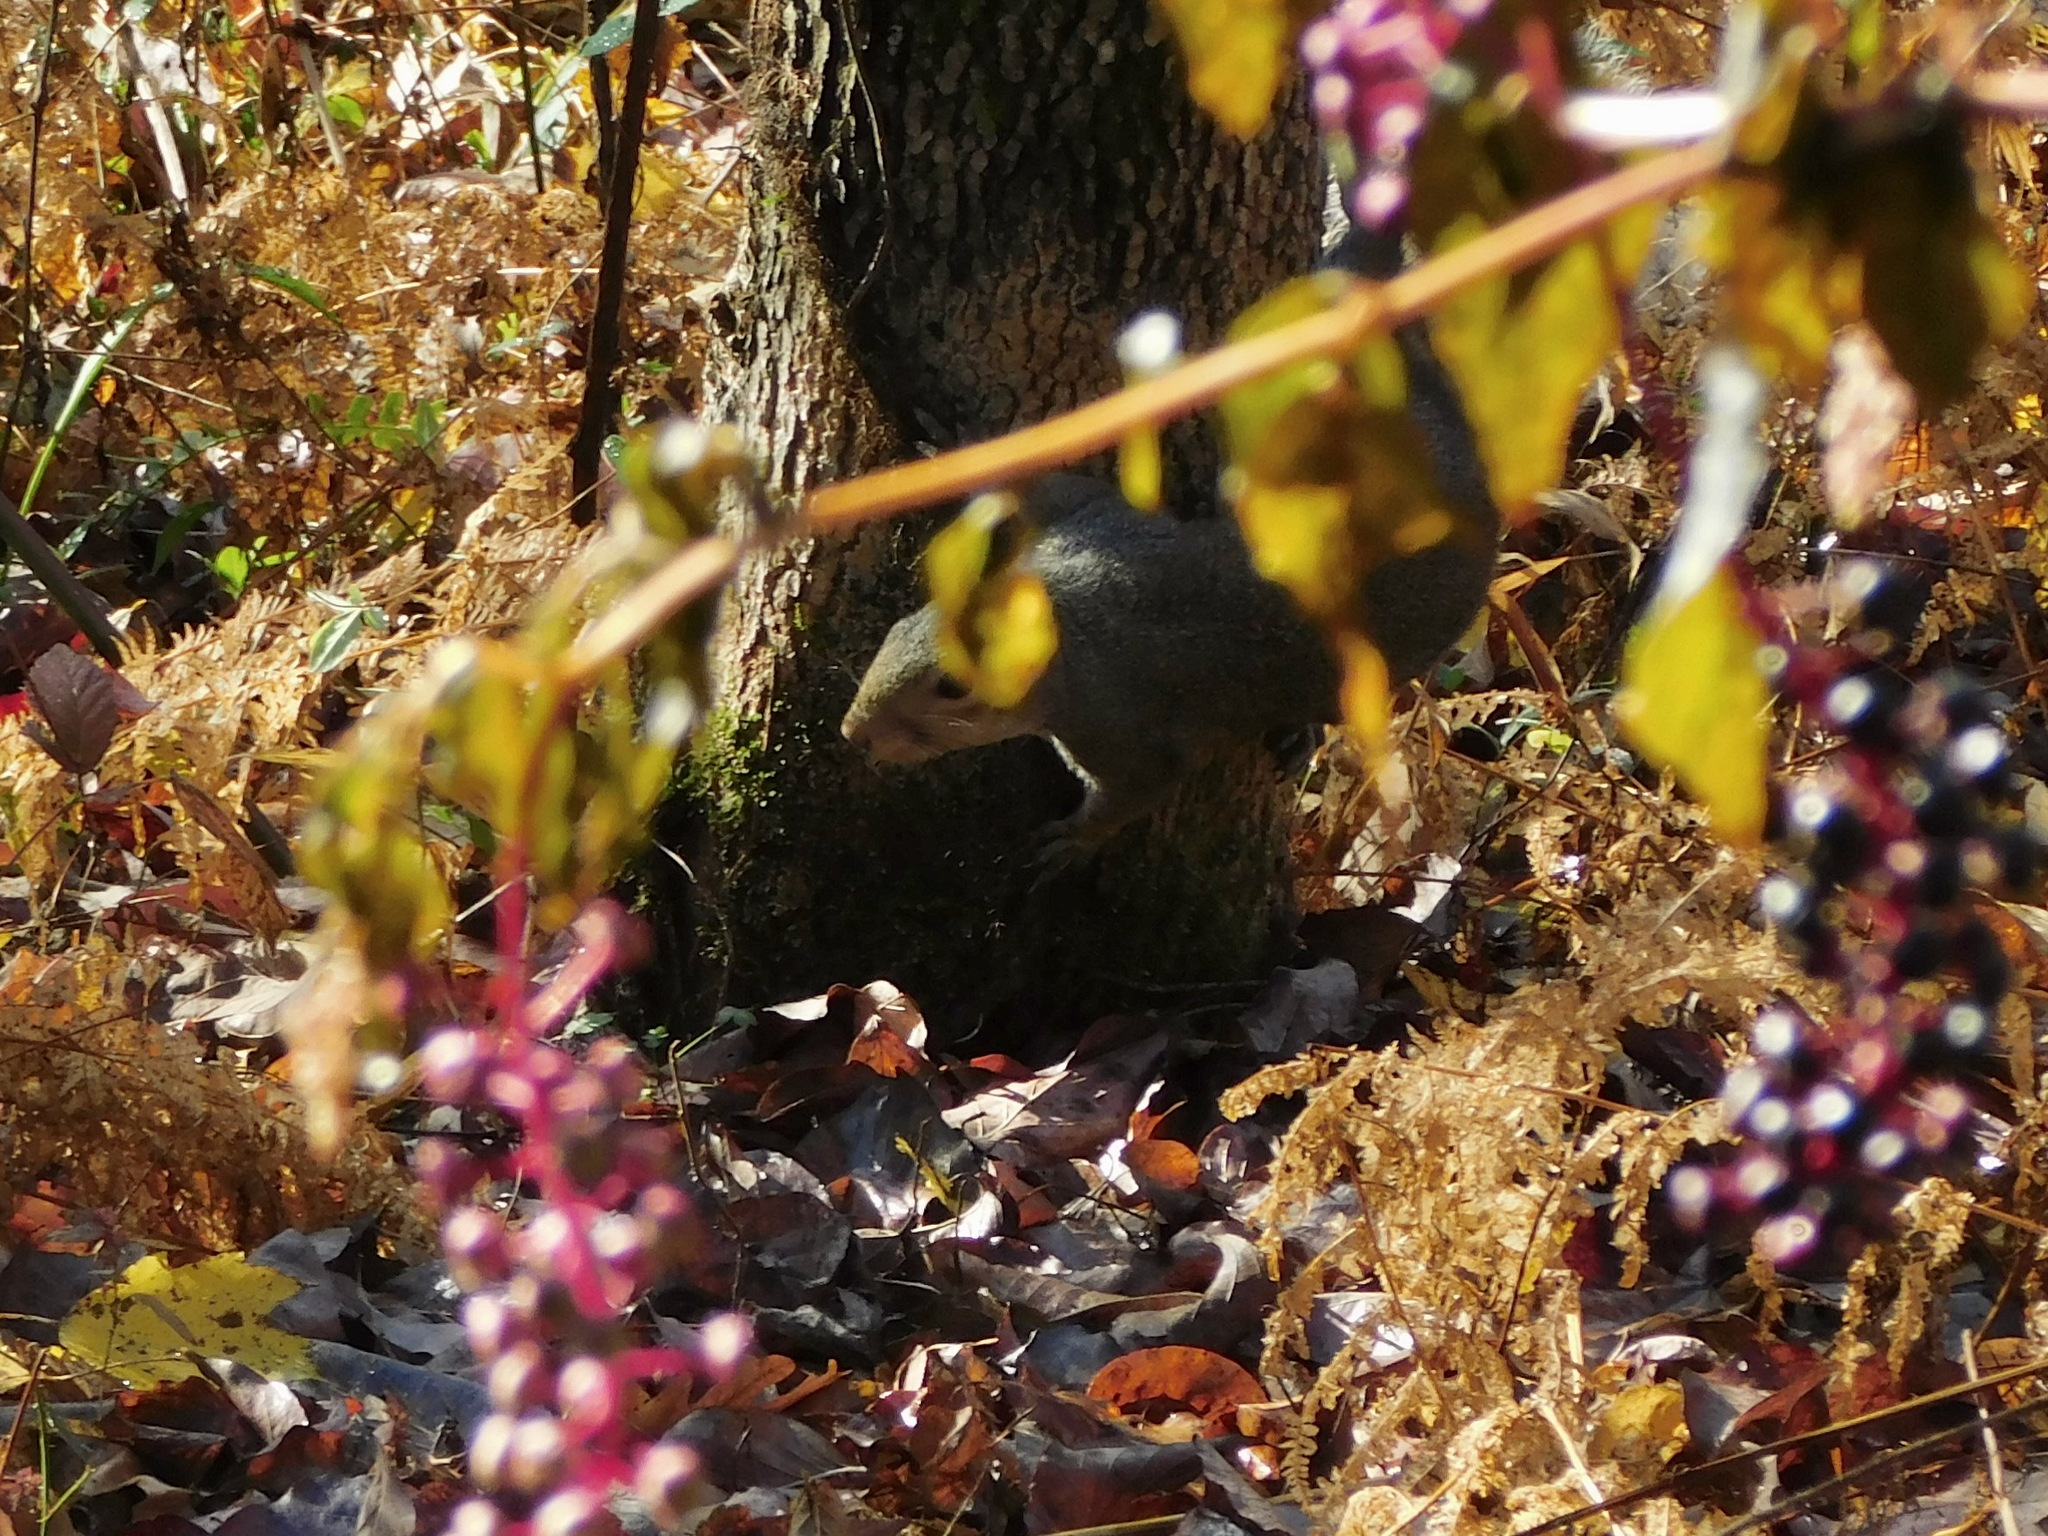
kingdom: Animalia
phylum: Chordata
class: Mammalia
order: Rodentia
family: Sciuridae
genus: Sciurus
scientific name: Sciurus carolinensis
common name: Eastern gray squirrel
